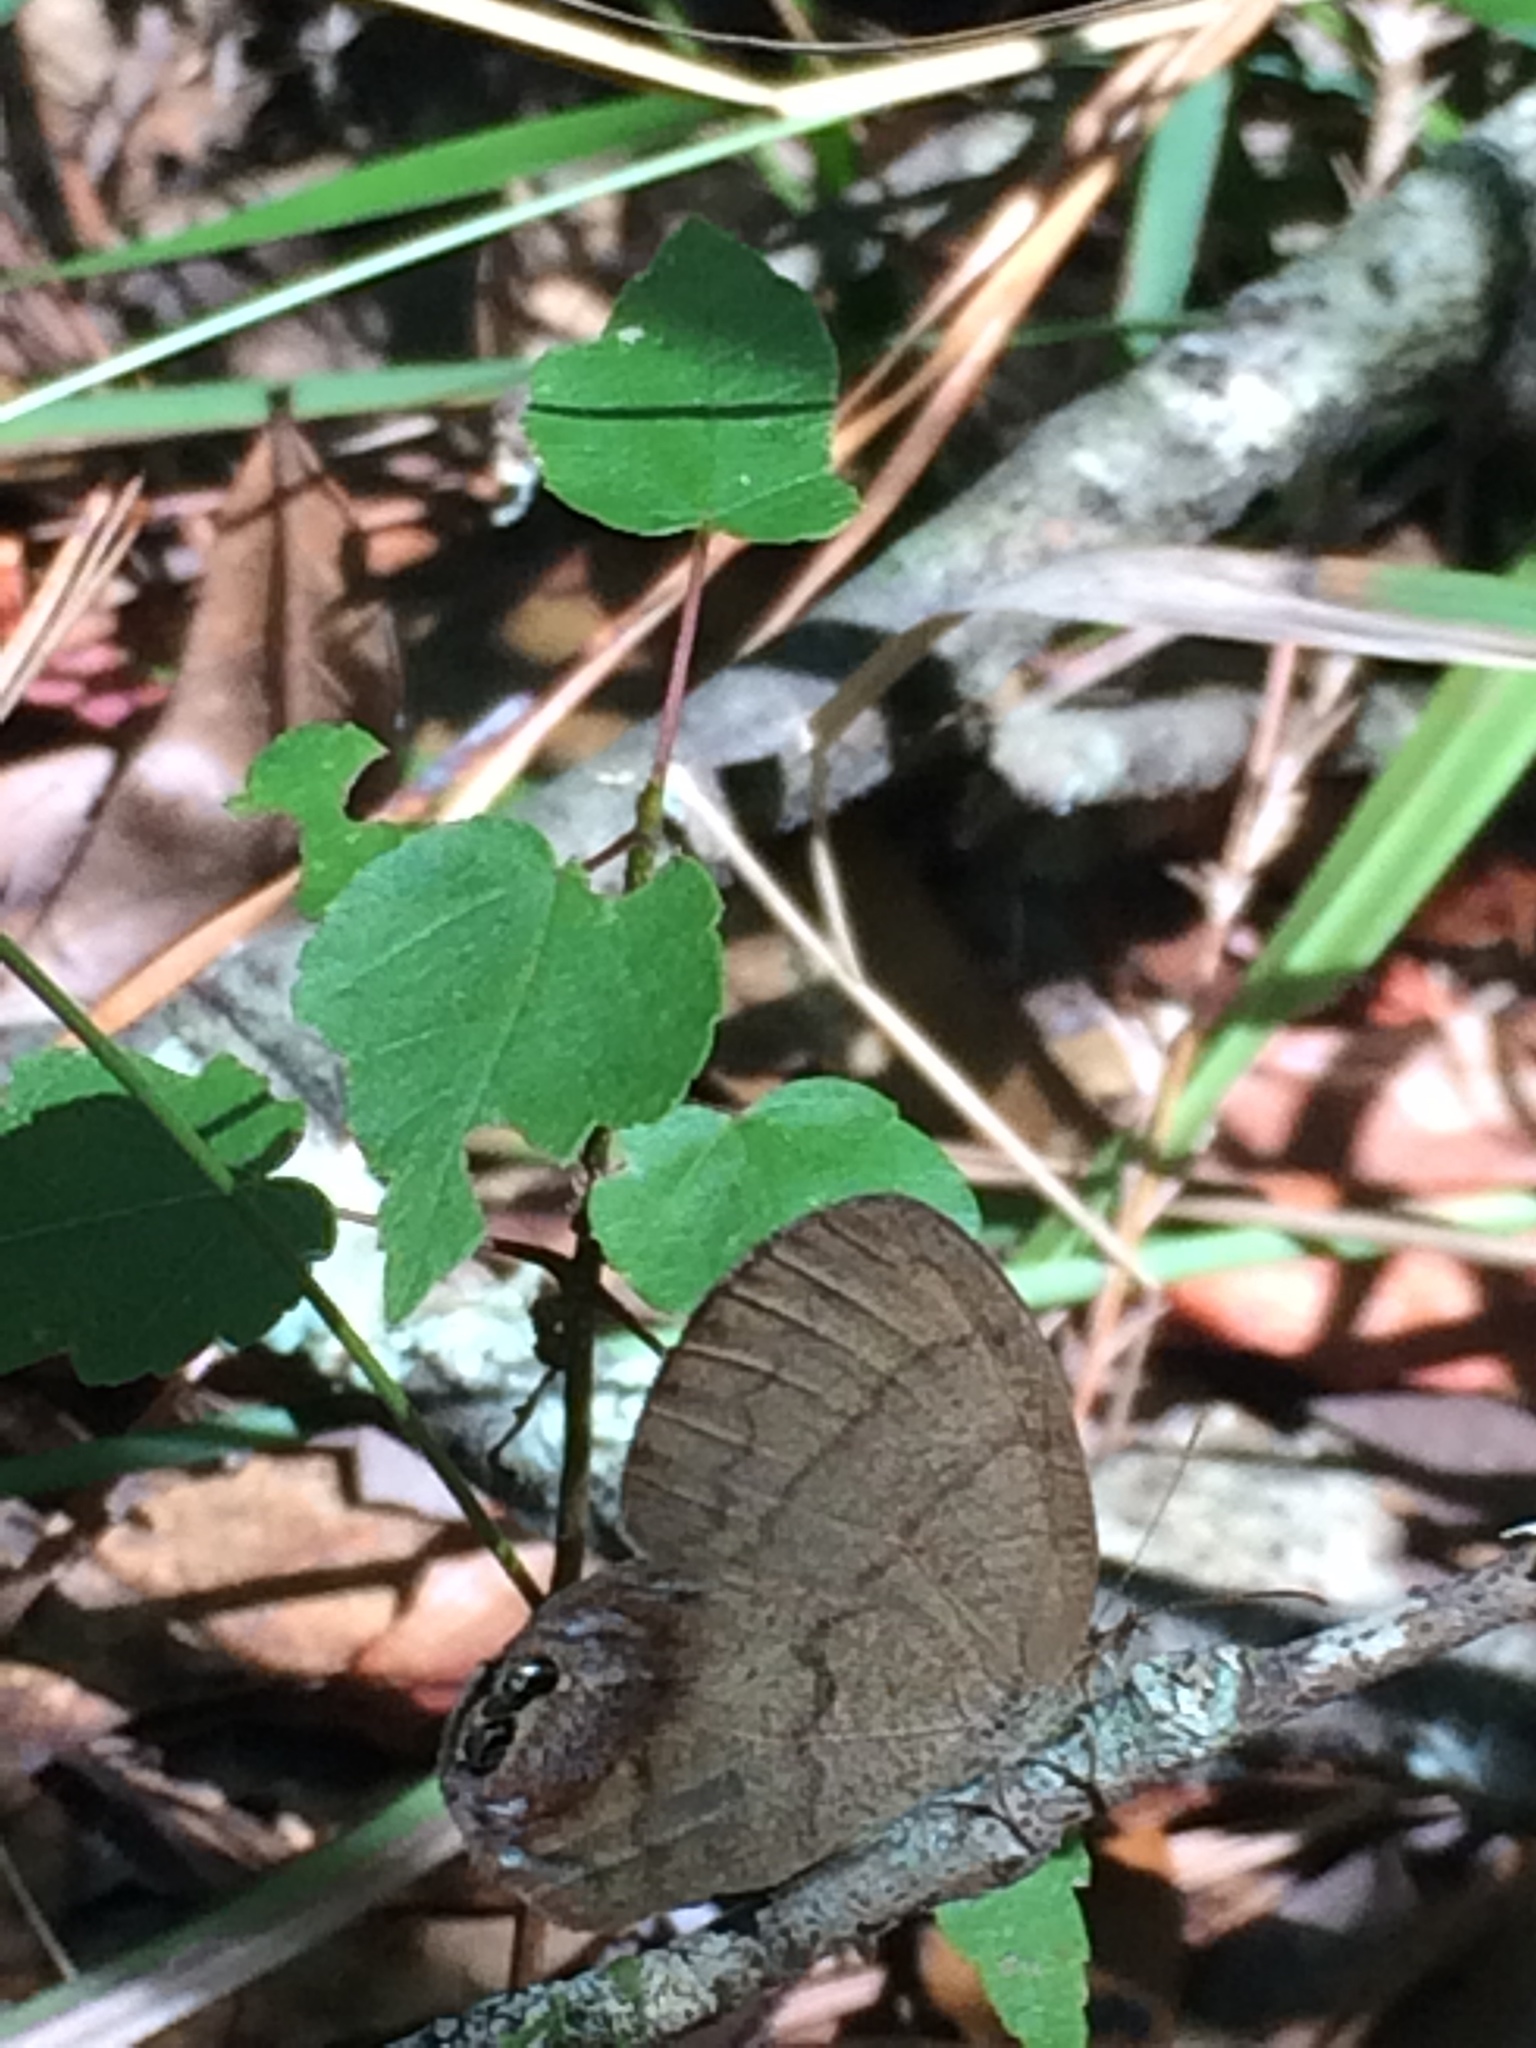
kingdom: Animalia
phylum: Arthropoda
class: Insecta
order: Lepidoptera
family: Nymphalidae
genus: Euptychia
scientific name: Euptychia cornelius
